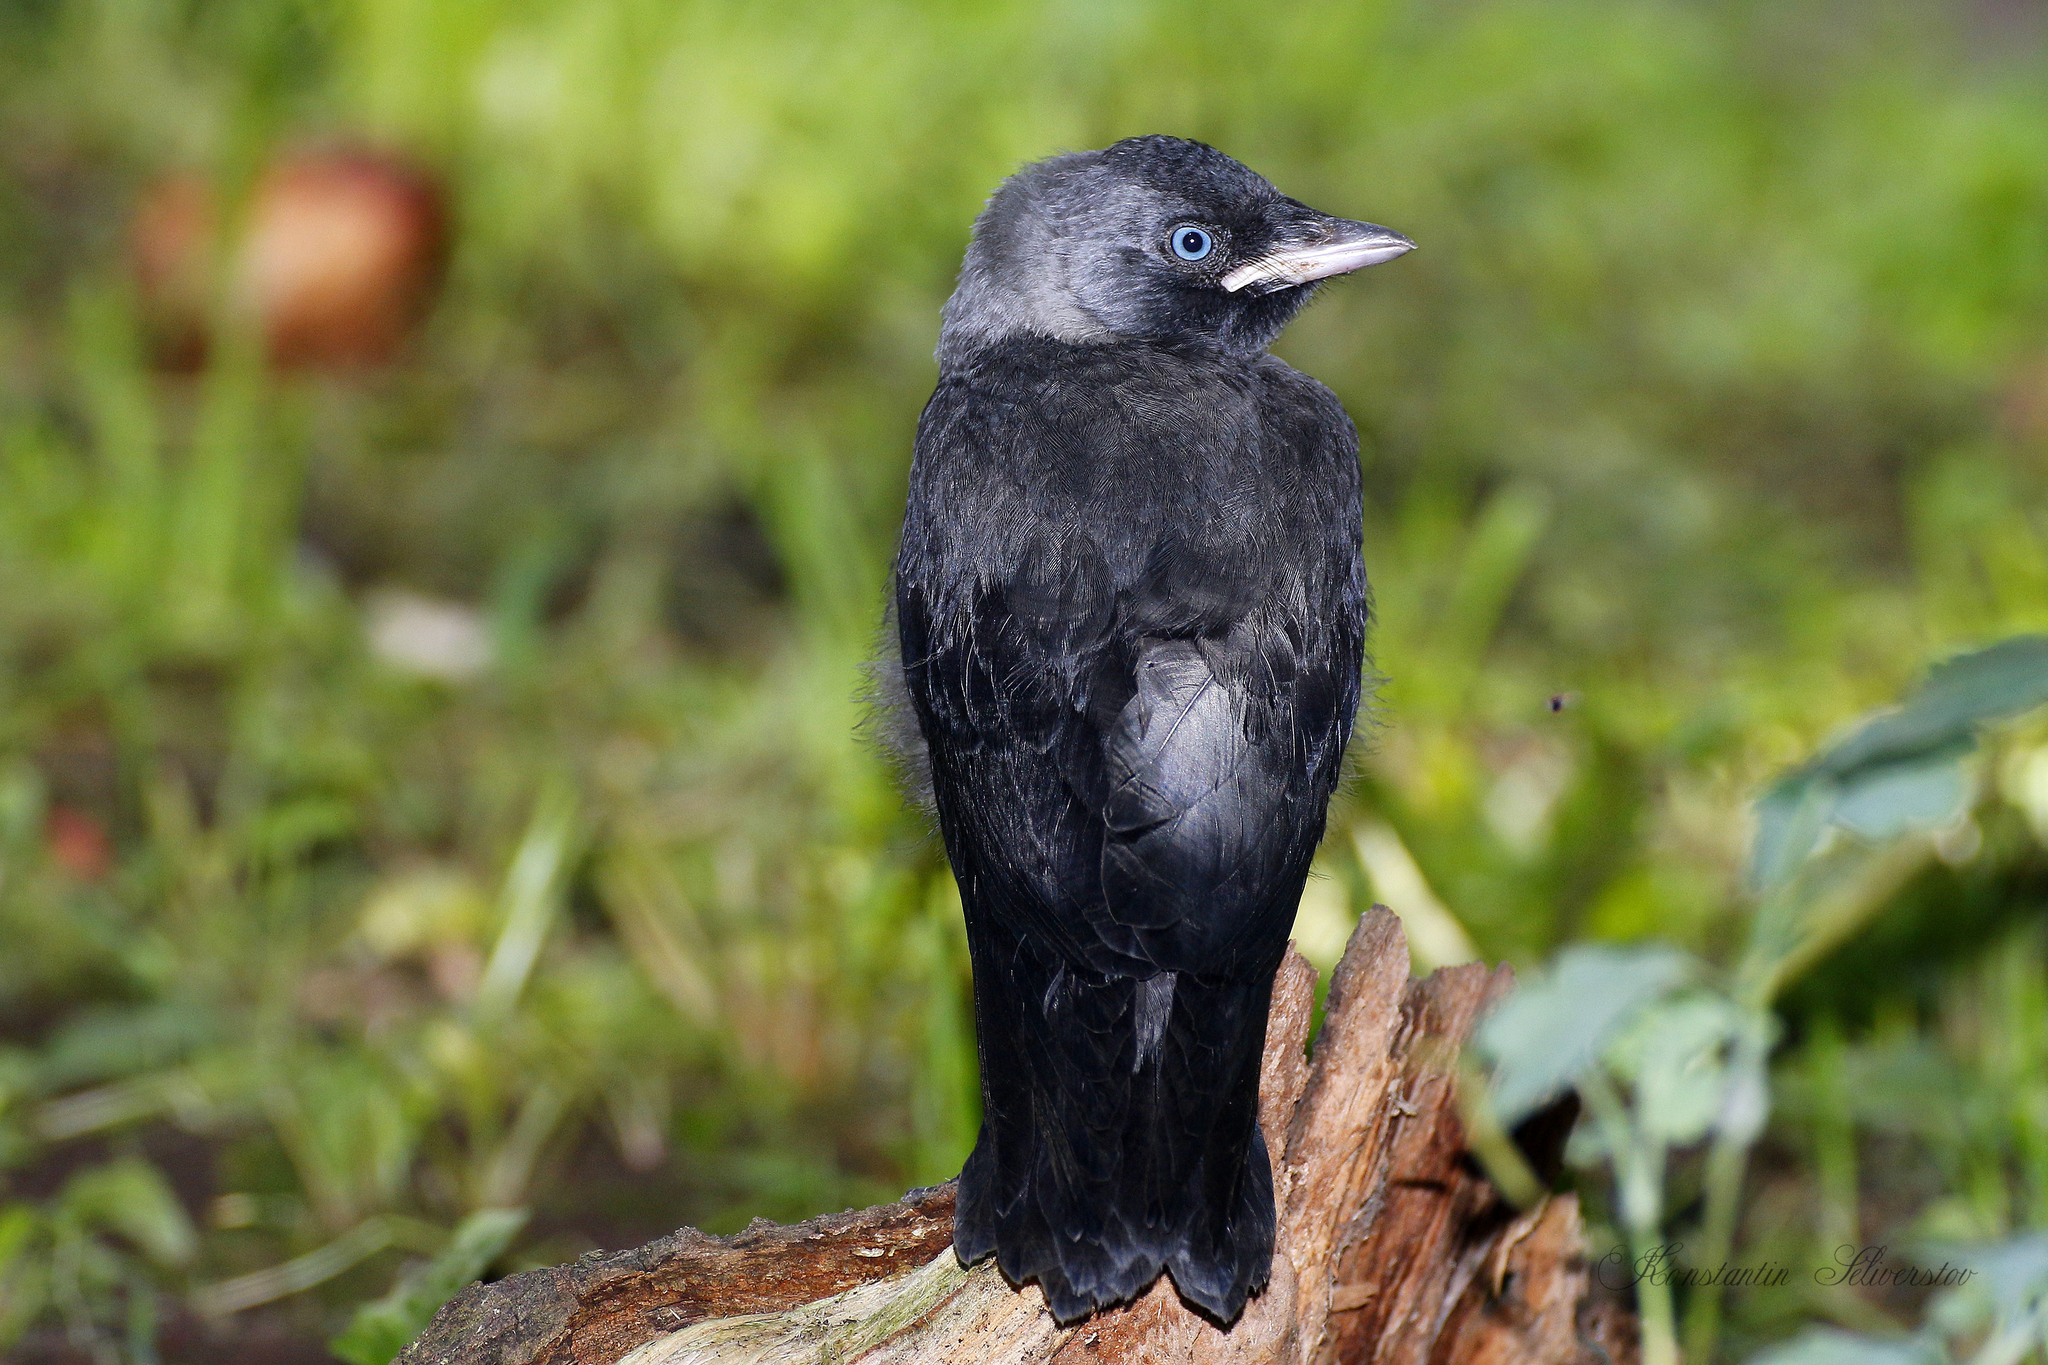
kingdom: Animalia
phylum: Chordata
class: Aves
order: Passeriformes
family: Corvidae
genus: Coloeus
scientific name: Coloeus monedula
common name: Western jackdaw
